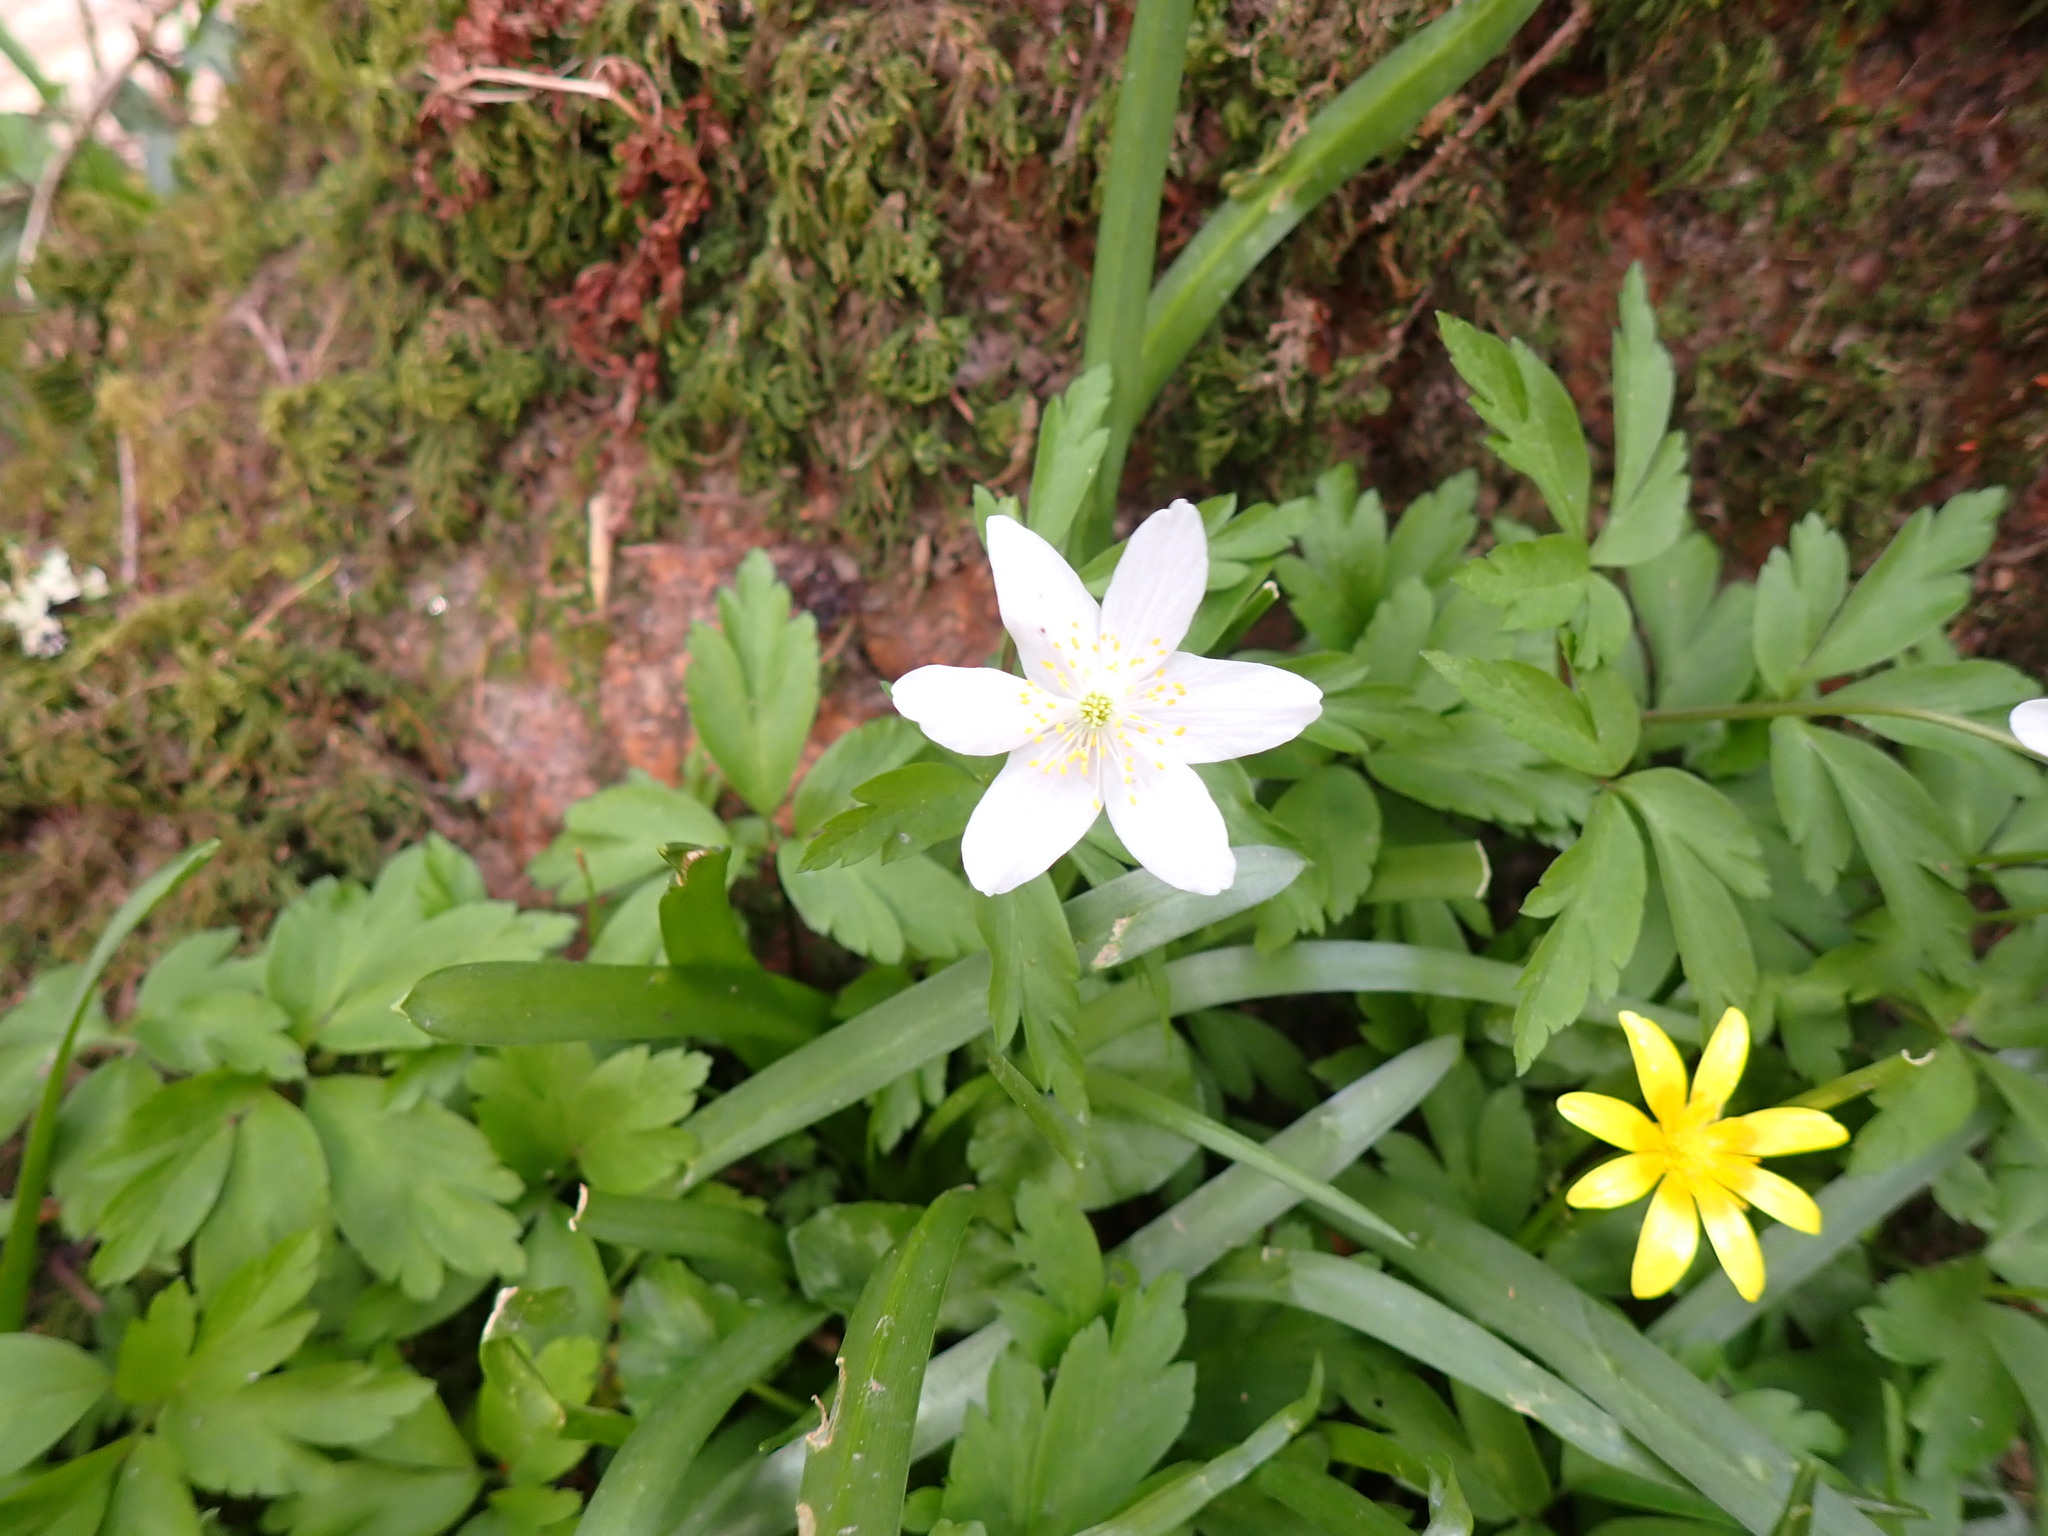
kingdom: Plantae
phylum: Tracheophyta
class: Magnoliopsida
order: Ranunculales
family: Ranunculaceae
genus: Anemone
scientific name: Anemone nemorosa
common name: Wood anemone
